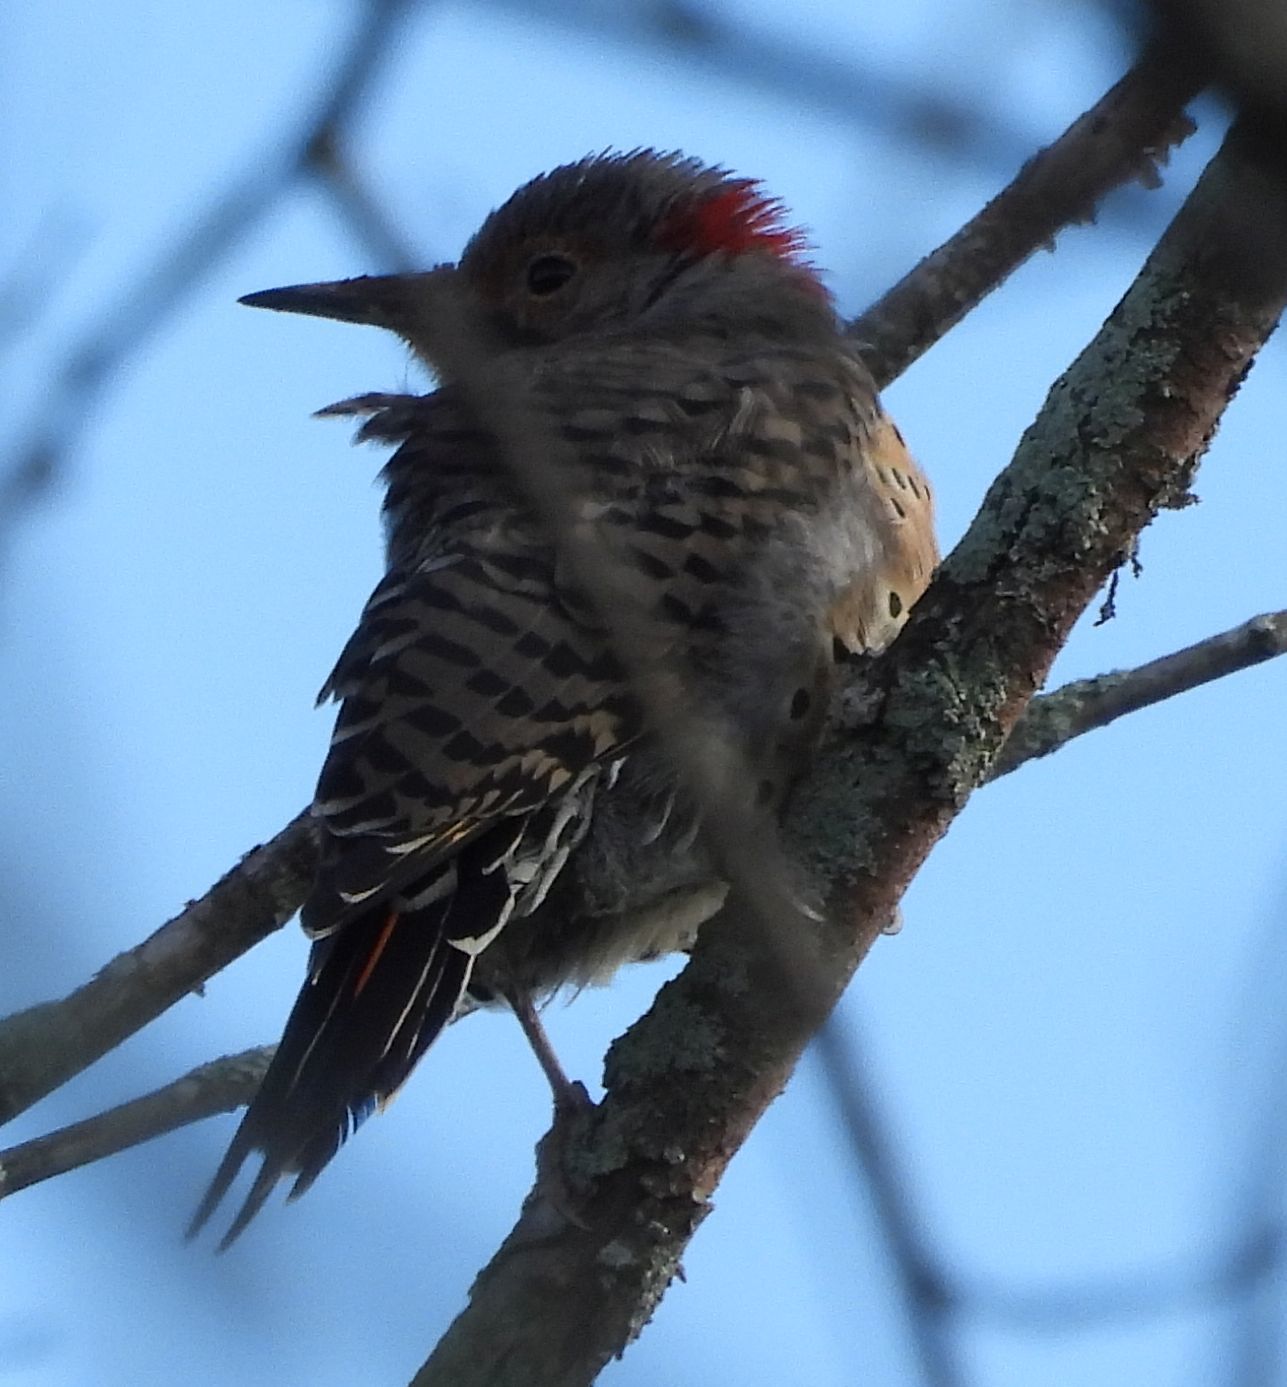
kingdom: Animalia
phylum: Chordata
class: Aves
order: Piciformes
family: Picidae
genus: Colaptes
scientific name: Colaptes auratus
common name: Northern flicker
